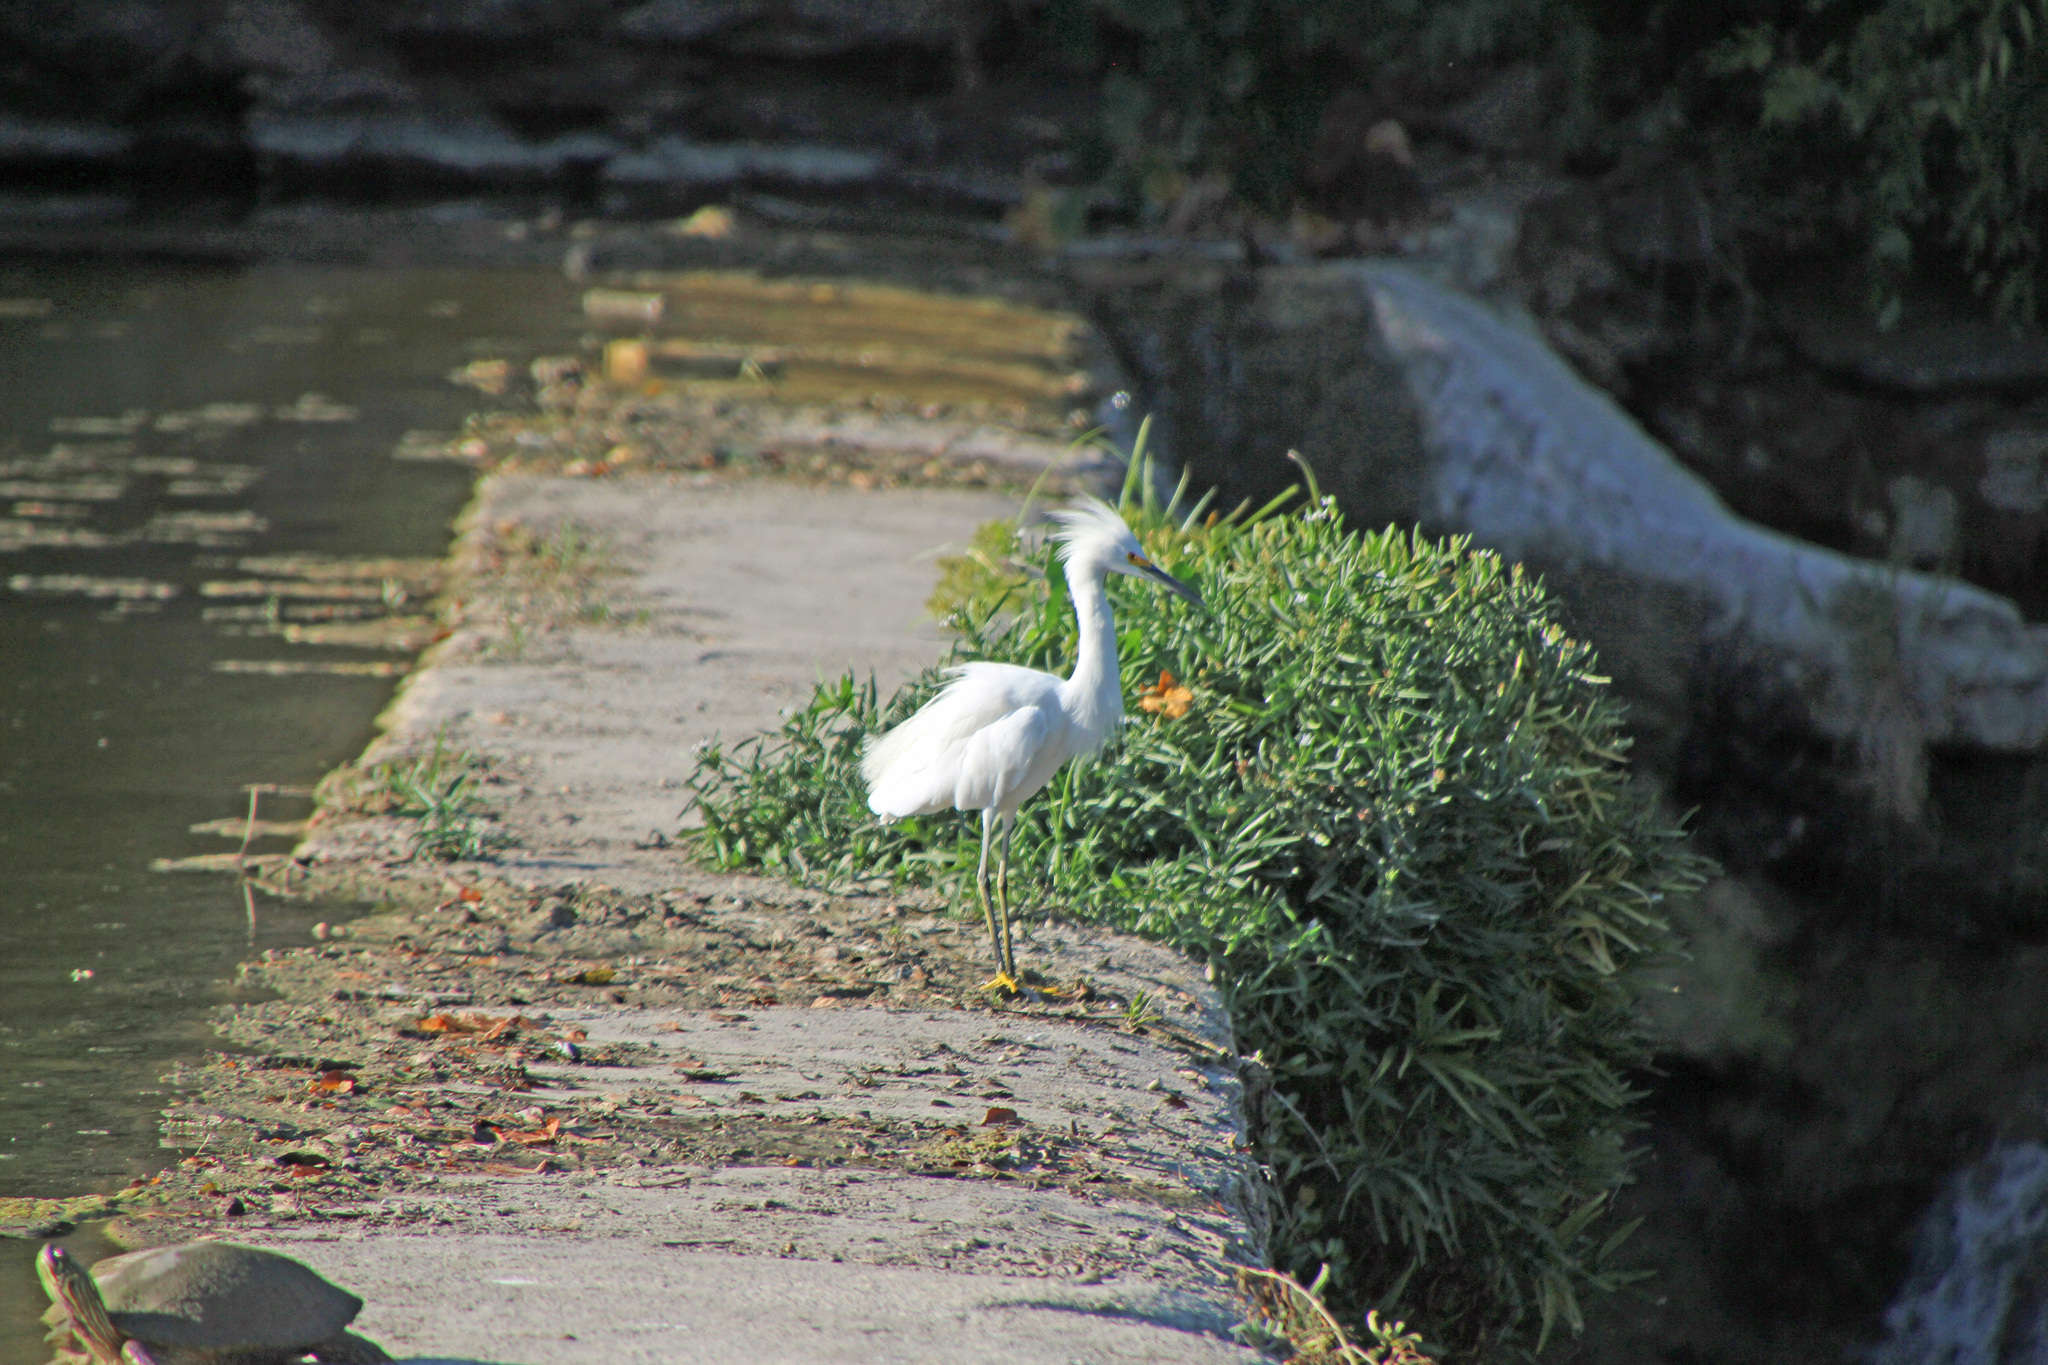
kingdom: Animalia
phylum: Chordata
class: Aves
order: Pelecaniformes
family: Ardeidae
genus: Egretta
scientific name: Egretta thula
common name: Snowy egret
